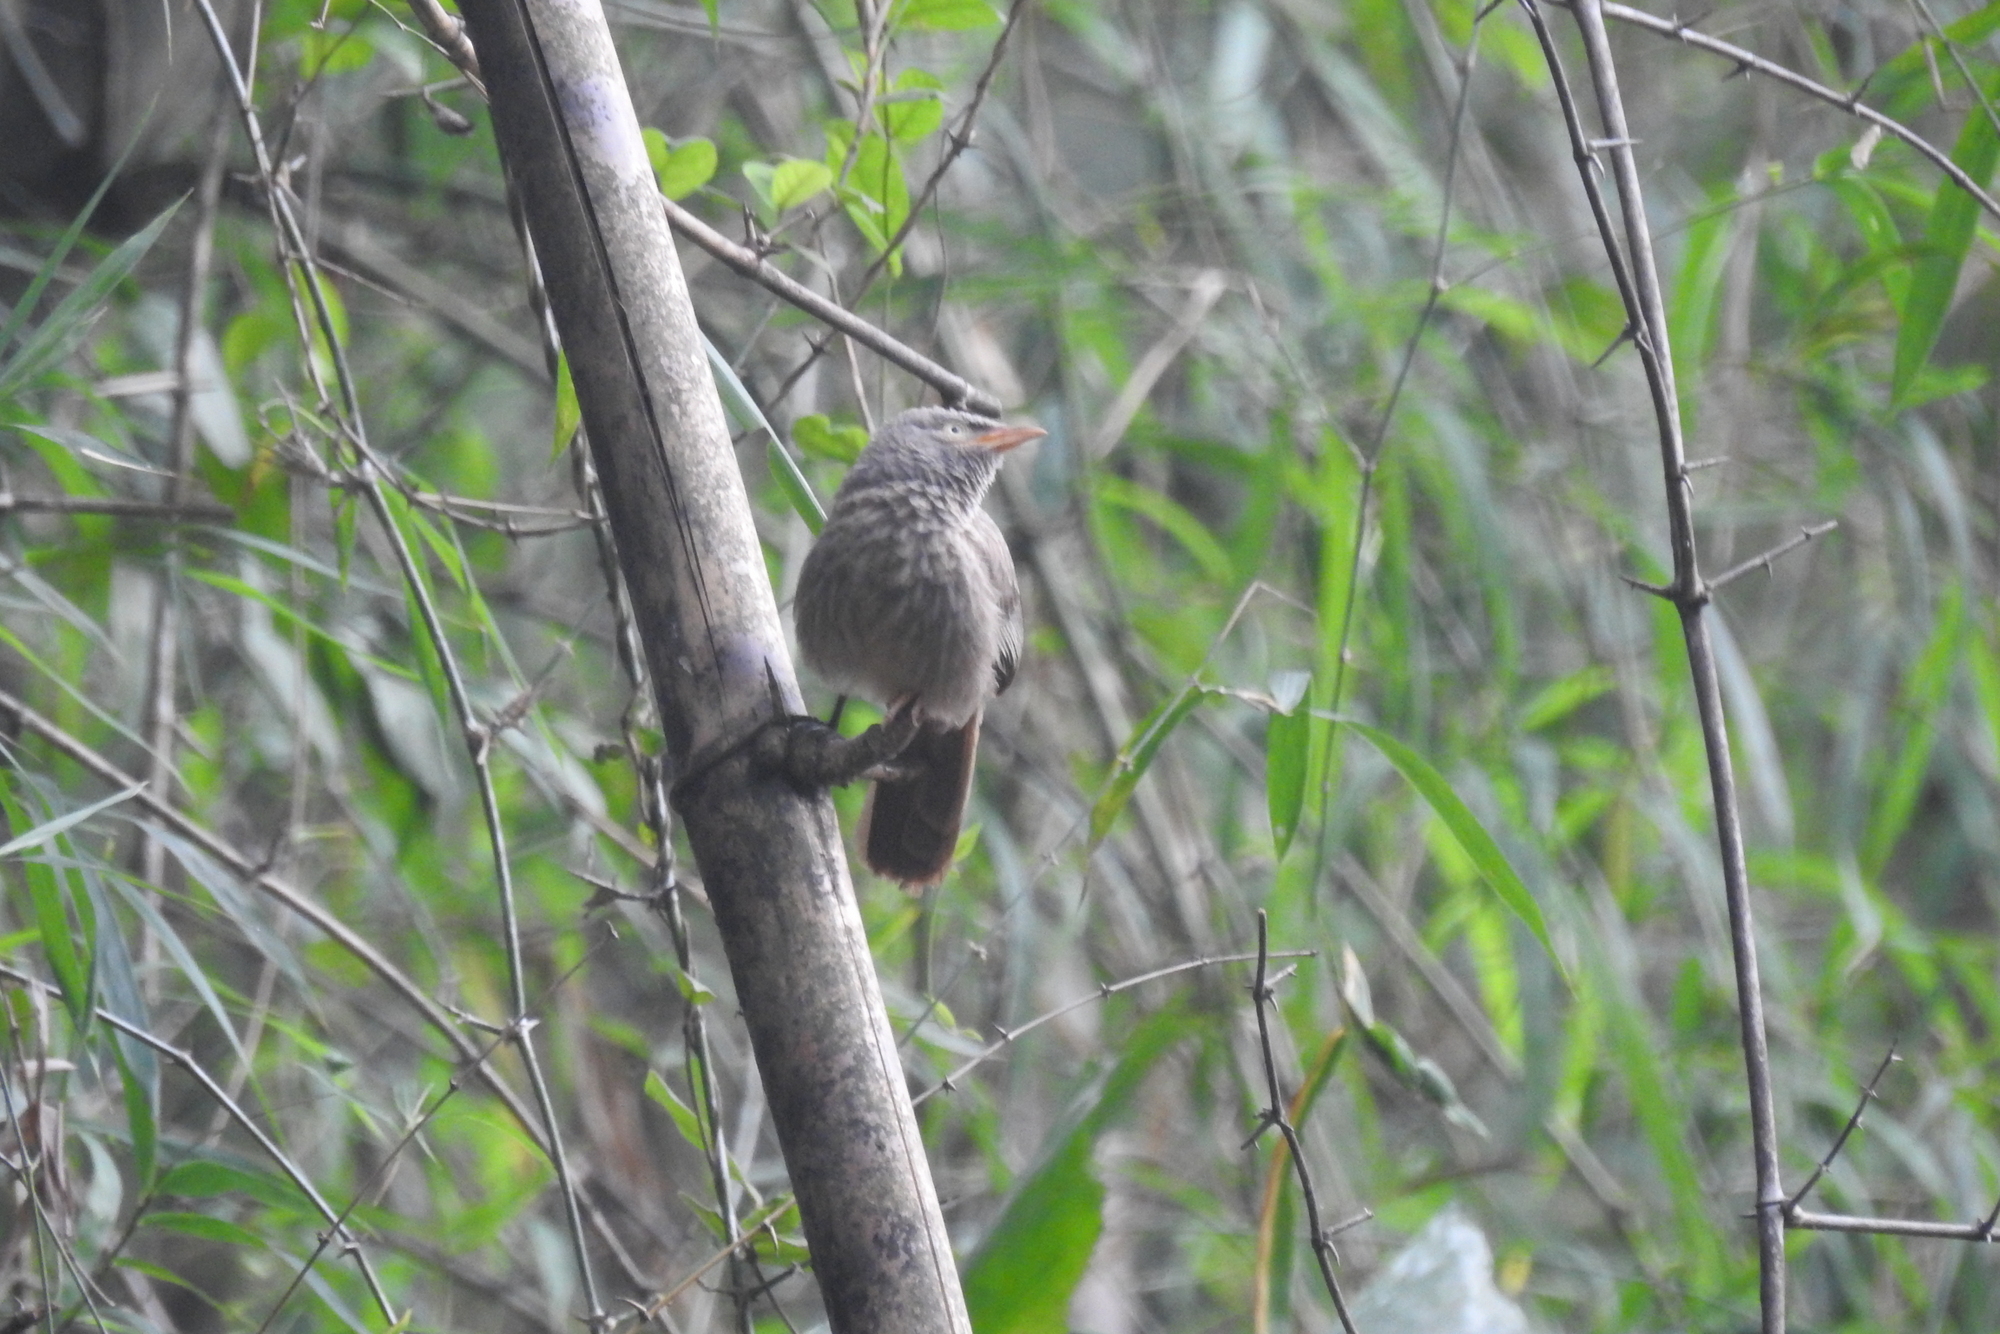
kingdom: Animalia
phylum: Chordata
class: Aves
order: Passeriformes
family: Leiothrichidae
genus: Turdoides
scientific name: Turdoides striata
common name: Jungle babbler
